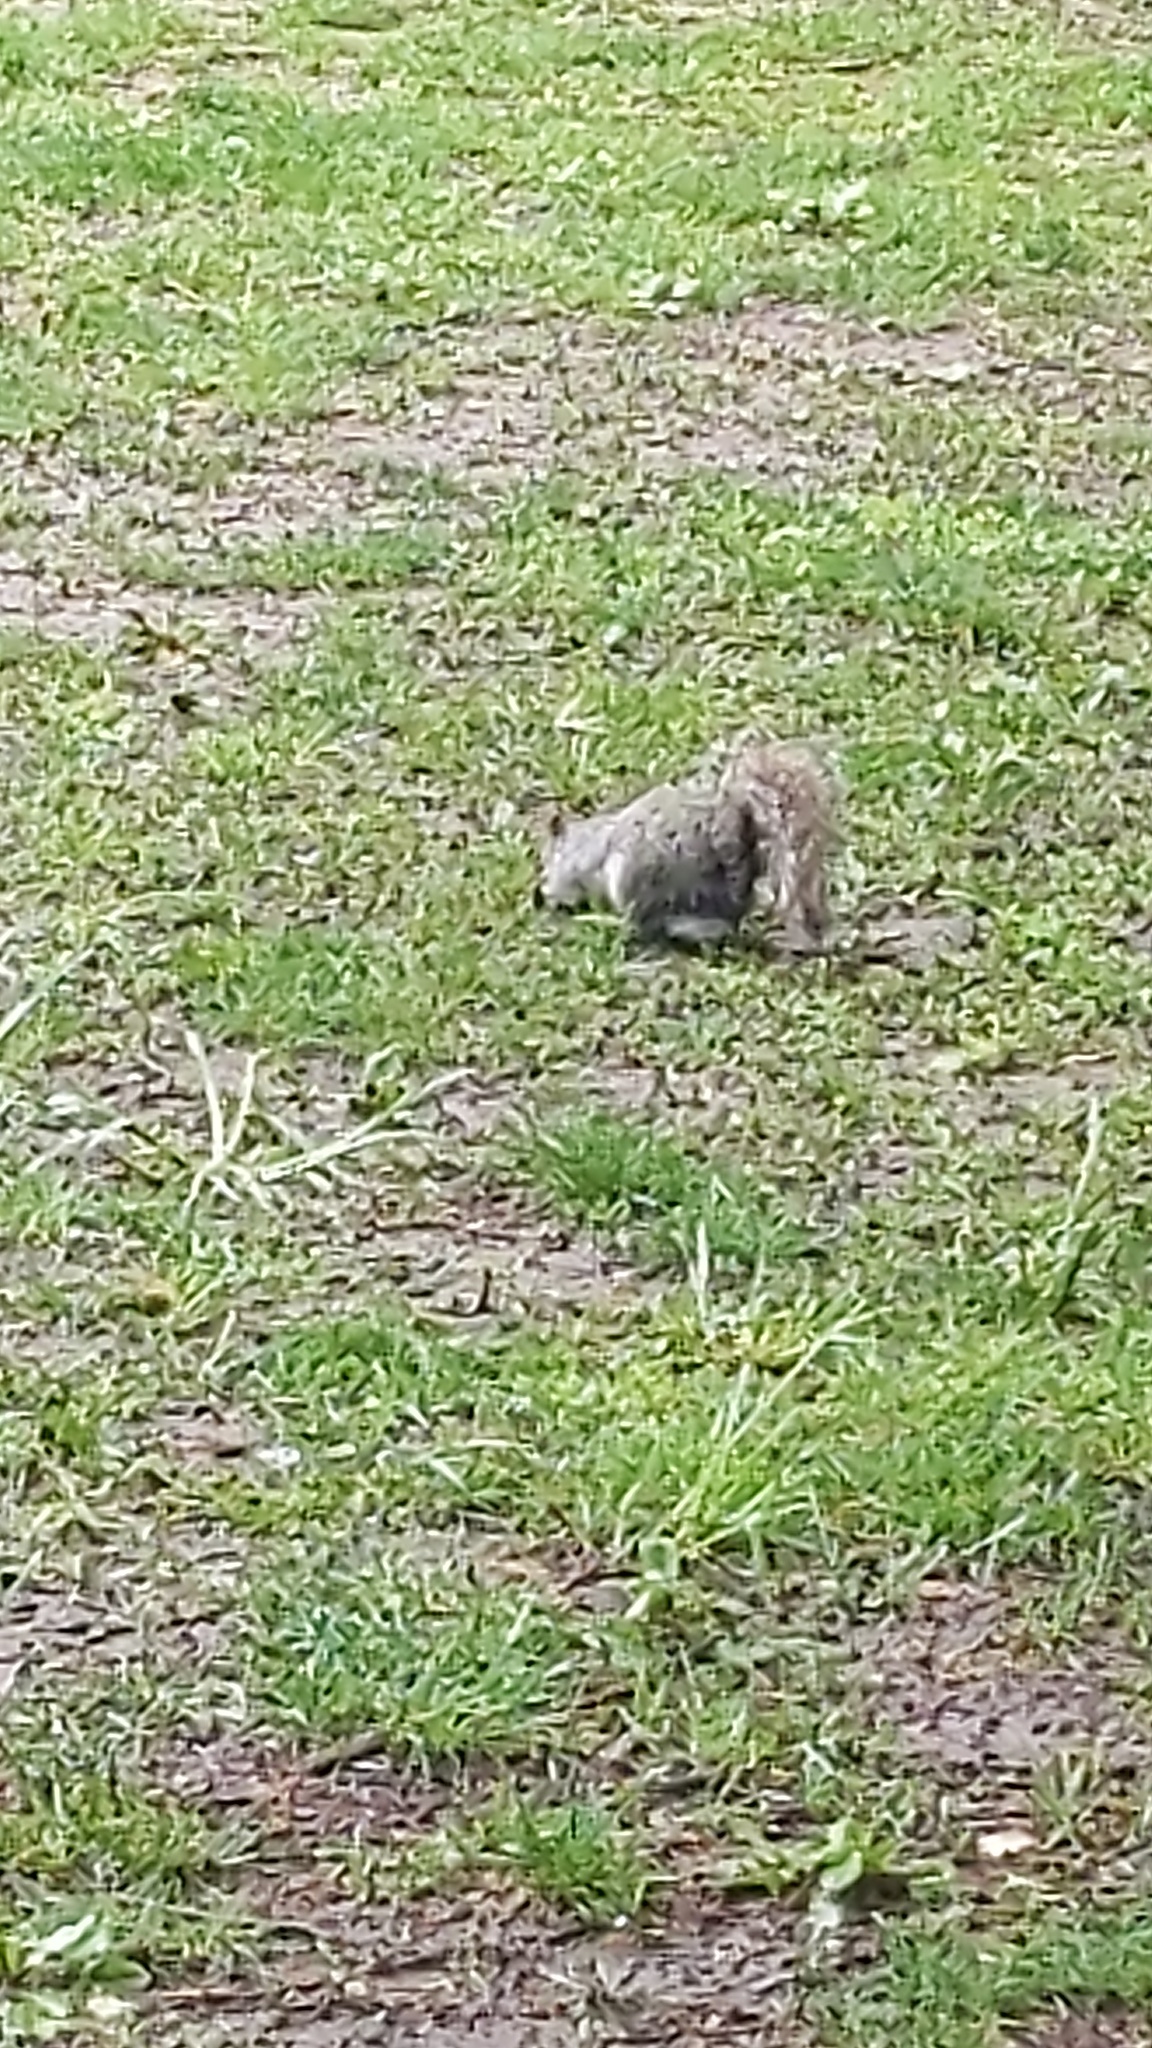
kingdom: Animalia
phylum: Chordata
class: Mammalia
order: Rodentia
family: Sciuridae
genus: Sciurus
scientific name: Sciurus carolinensis
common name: Eastern gray squirrel
